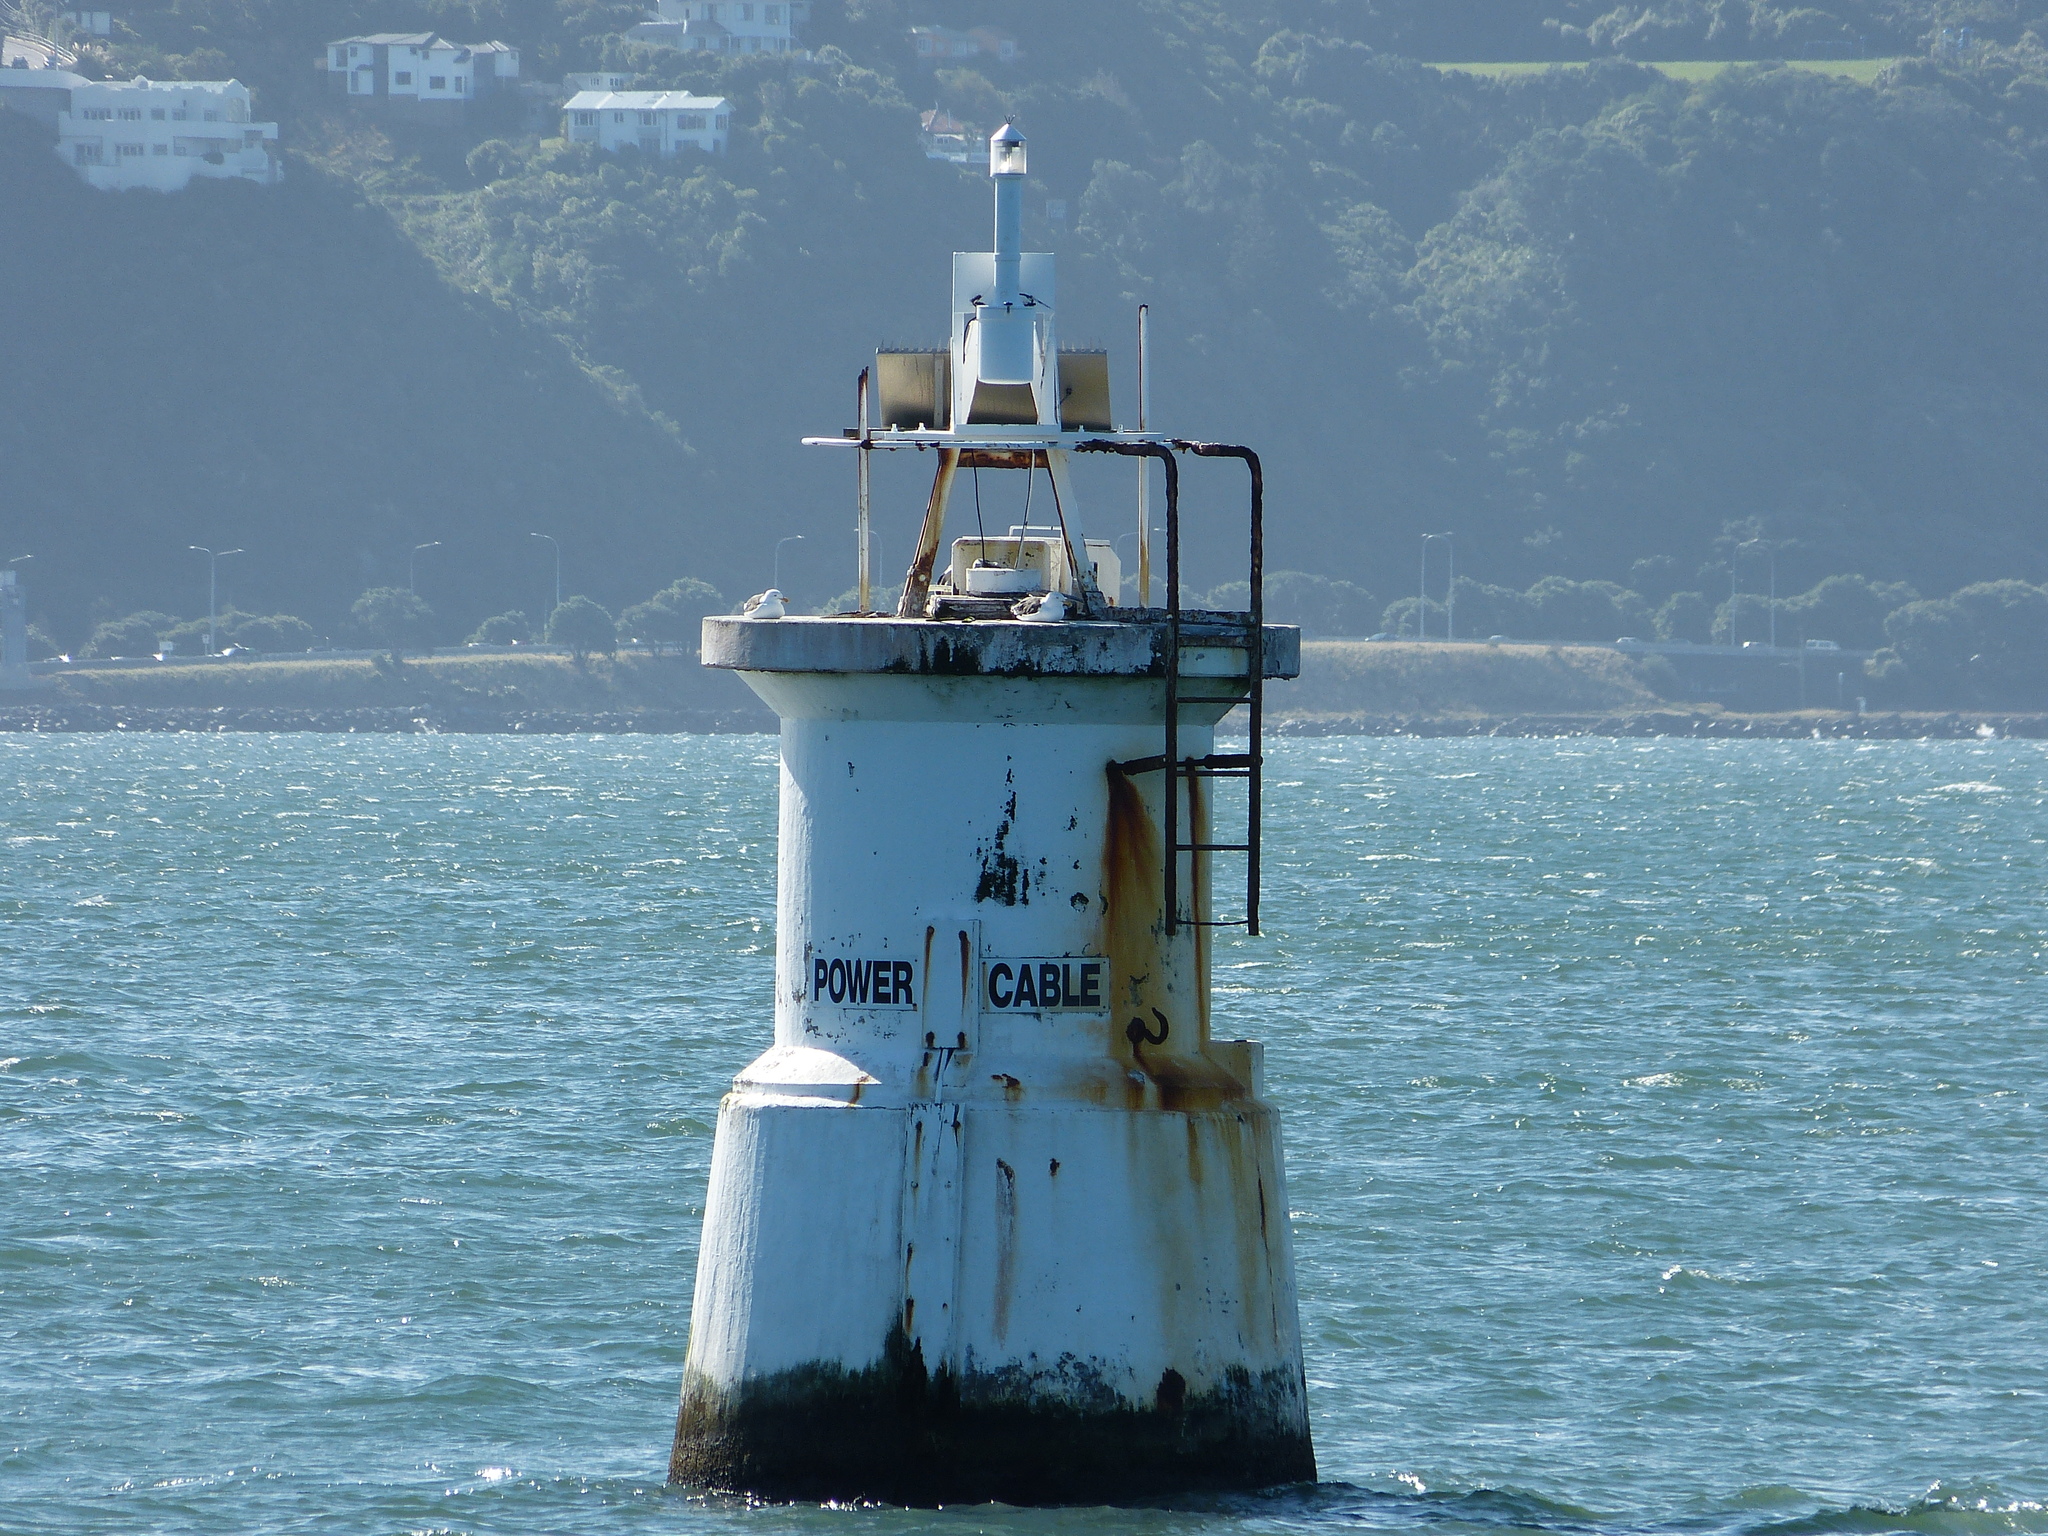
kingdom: Animalia
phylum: Chordata
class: Aves
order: Charadriiformes
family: Laridae
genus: Larus
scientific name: Larus dominicanus
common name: Kelp gull
